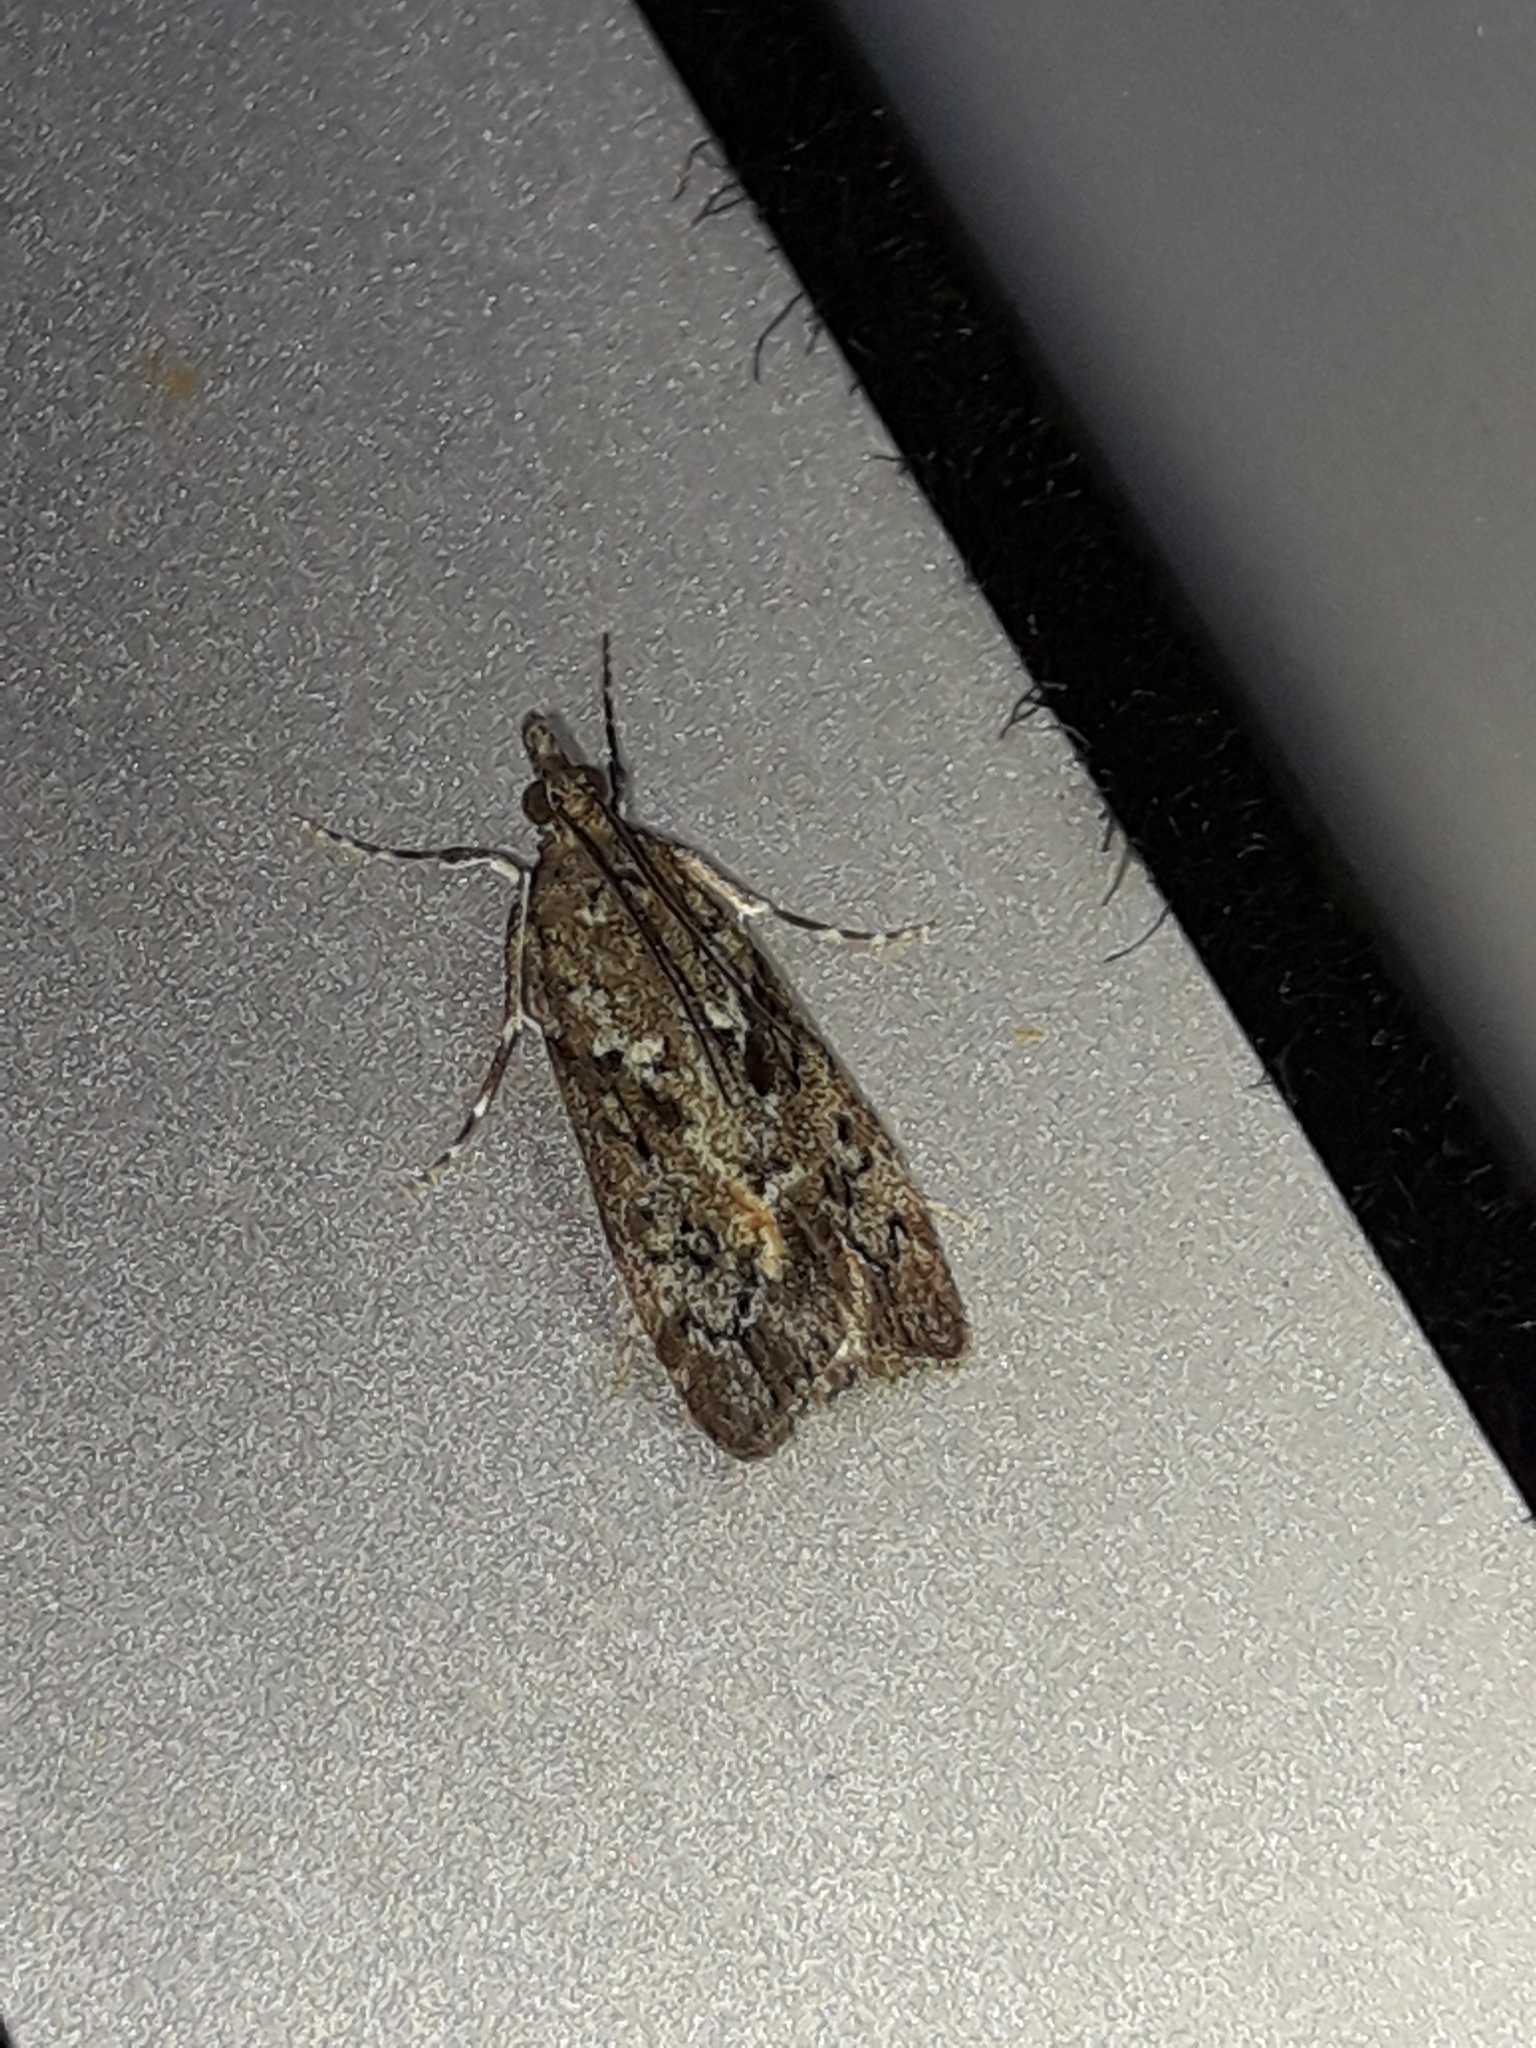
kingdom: Animalia
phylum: Arthropoda
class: Insecta
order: Lepidoptera
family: Crambidae
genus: Eudonia
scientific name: Eudonia submarginalis
